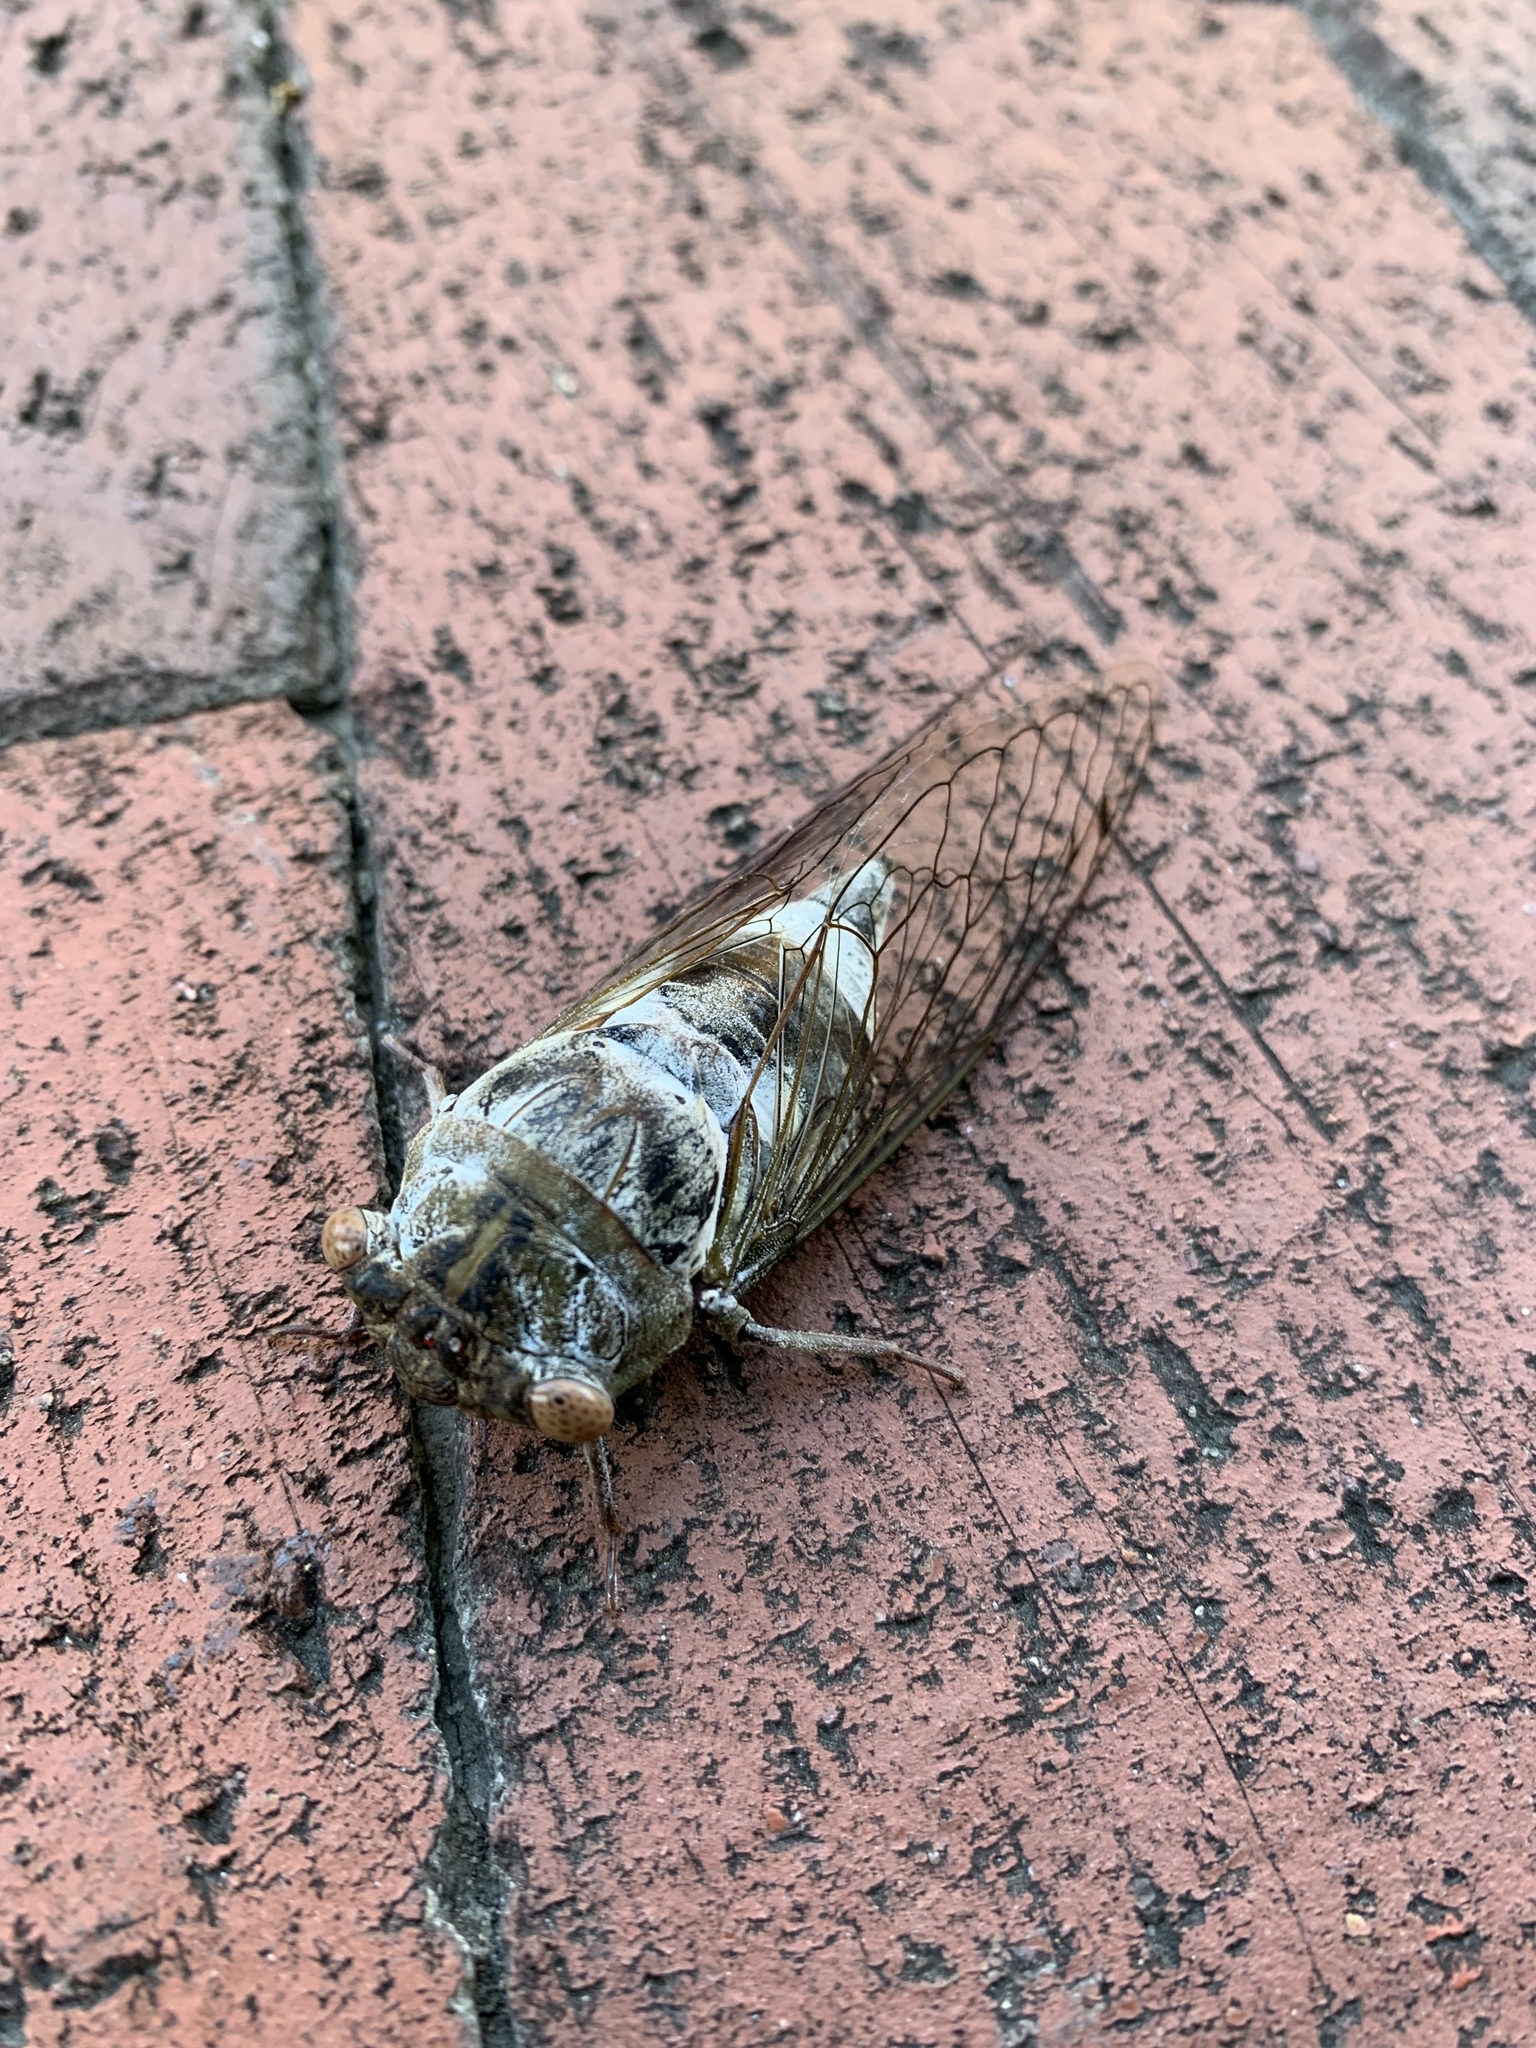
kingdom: Animalia
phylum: Arthropoda
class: Insecta
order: Hemiptera
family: Cicadidae
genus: Diceroprocta
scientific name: Diceroprocta grossa
